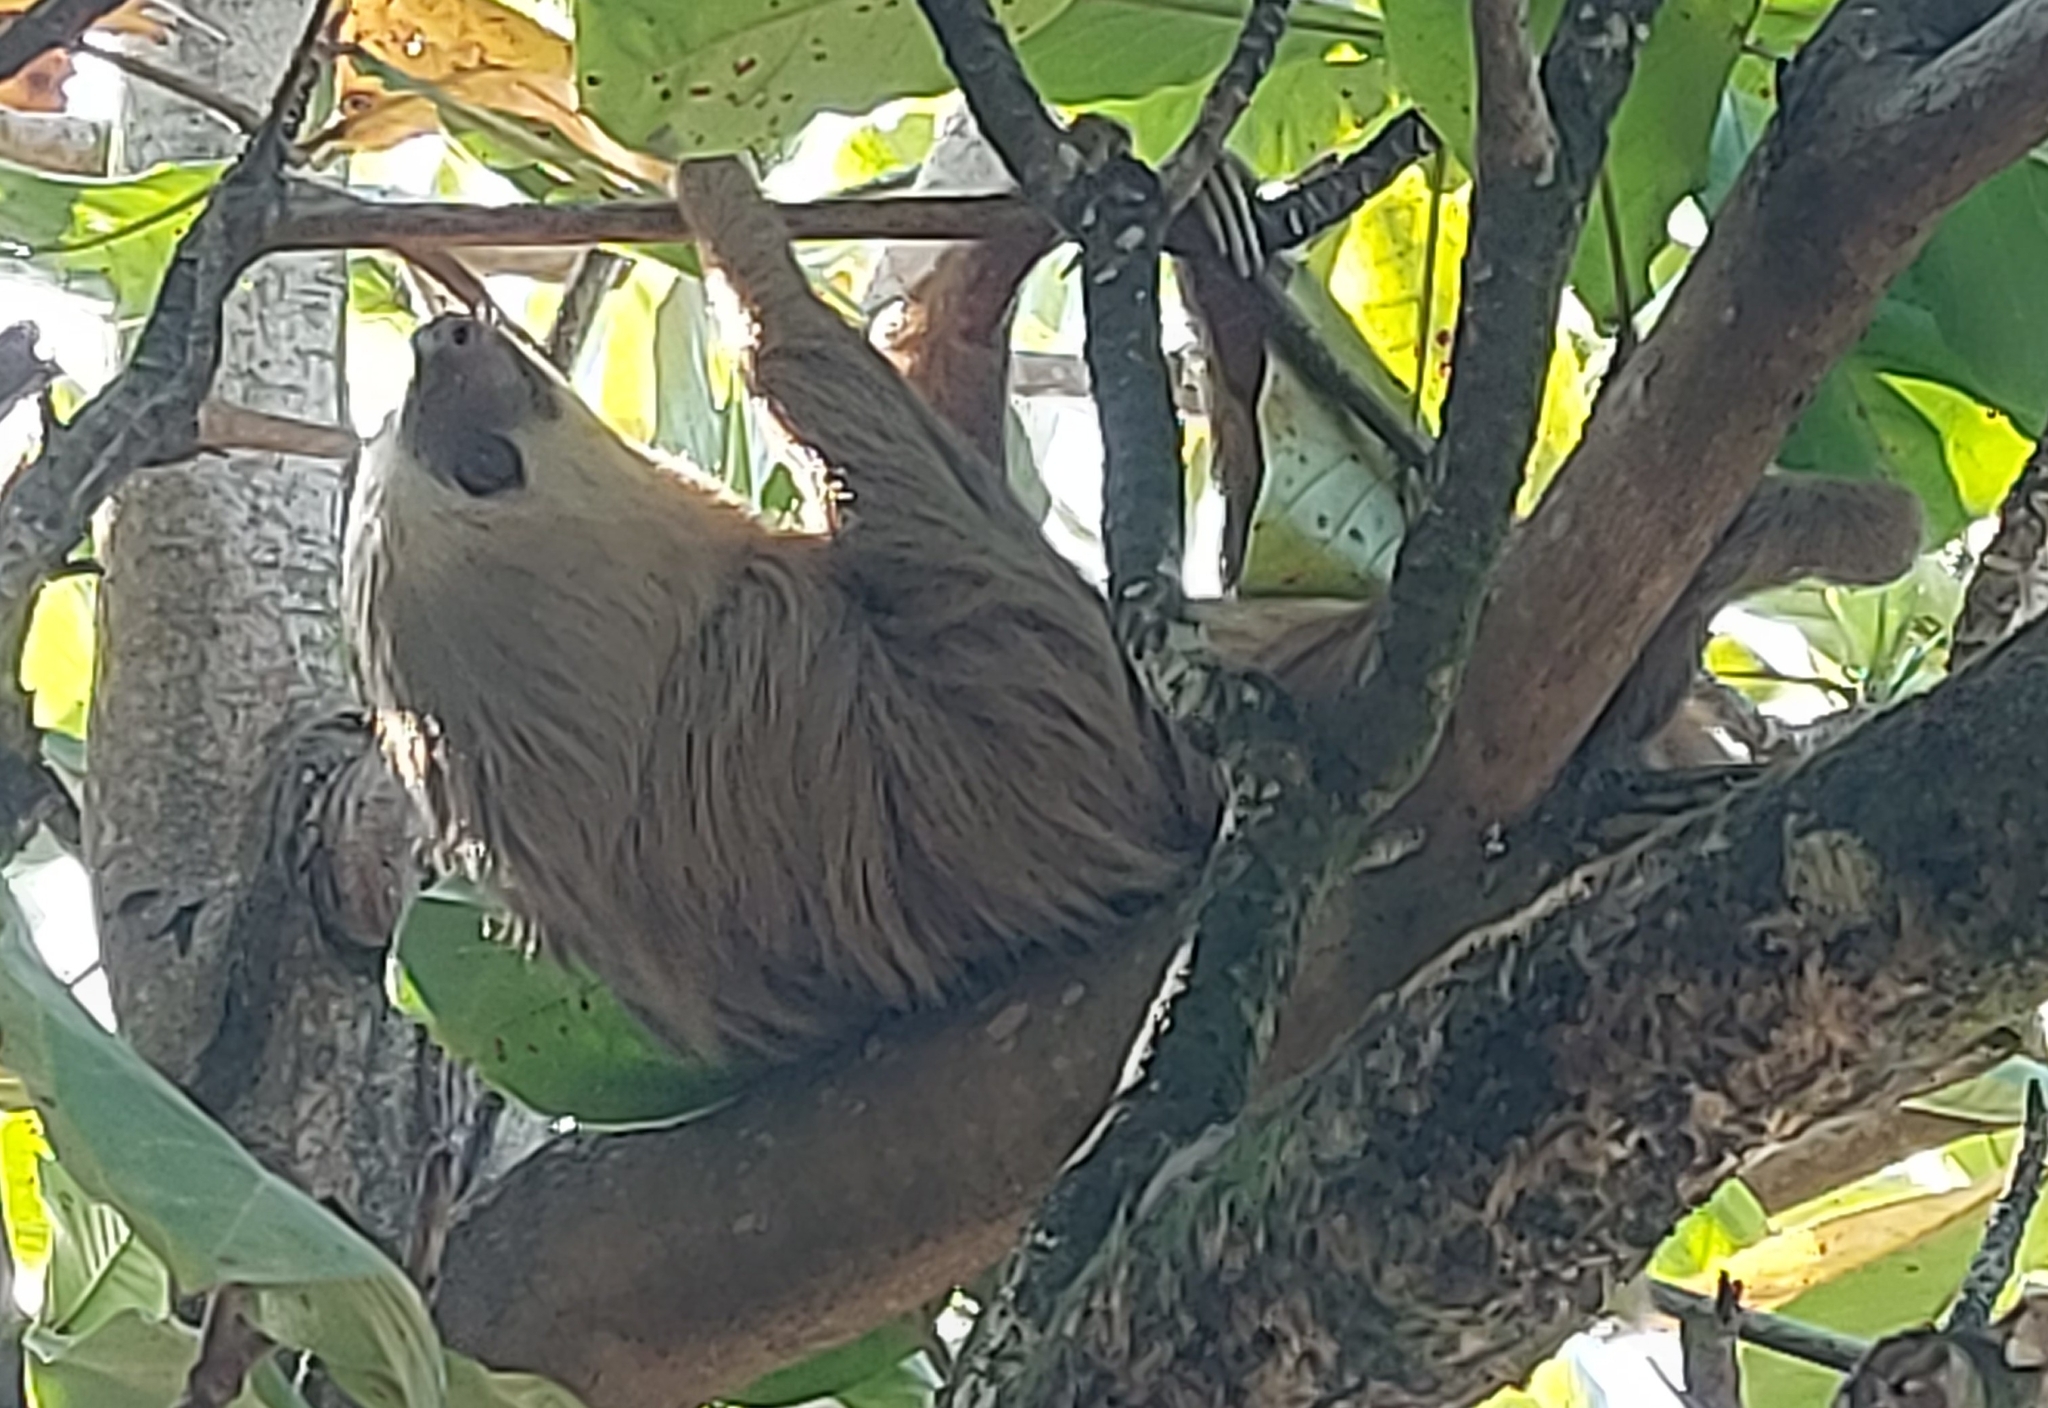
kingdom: Animalia
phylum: Chordata
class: Mammalia
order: Pilosa
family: Megalonychidae
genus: Choloepus
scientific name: Choloepus hoffmanni
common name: Hoffmann's two-toed sloth
